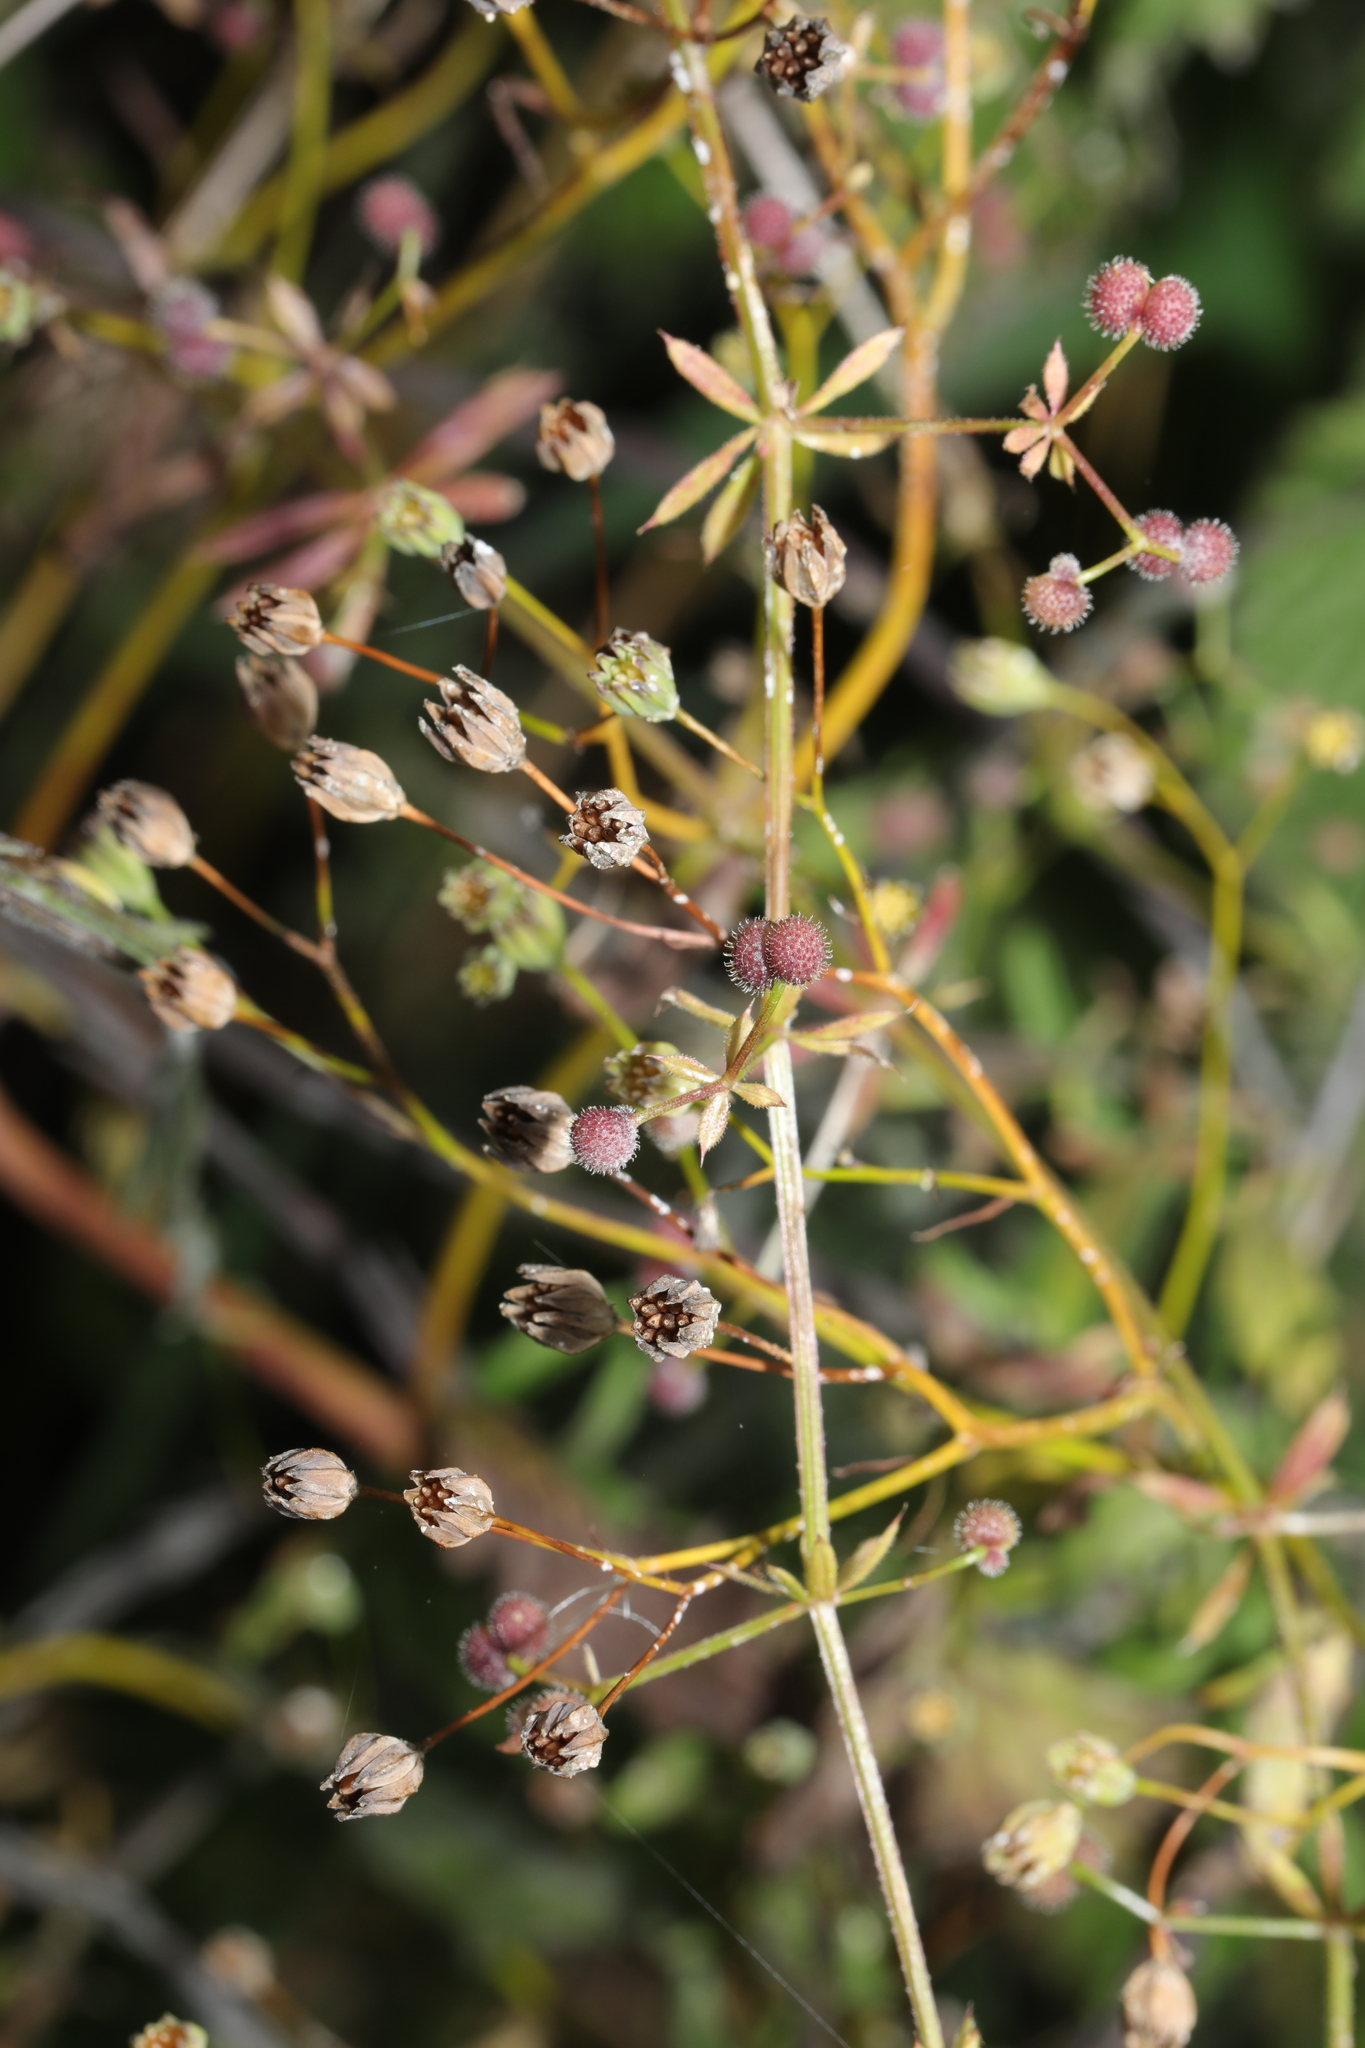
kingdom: Plantae
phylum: Tracheophyta
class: Magnoliopsida
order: Asterales
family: Asteraceae
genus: Lapsana
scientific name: Lapsana communis
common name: Nipplewort
